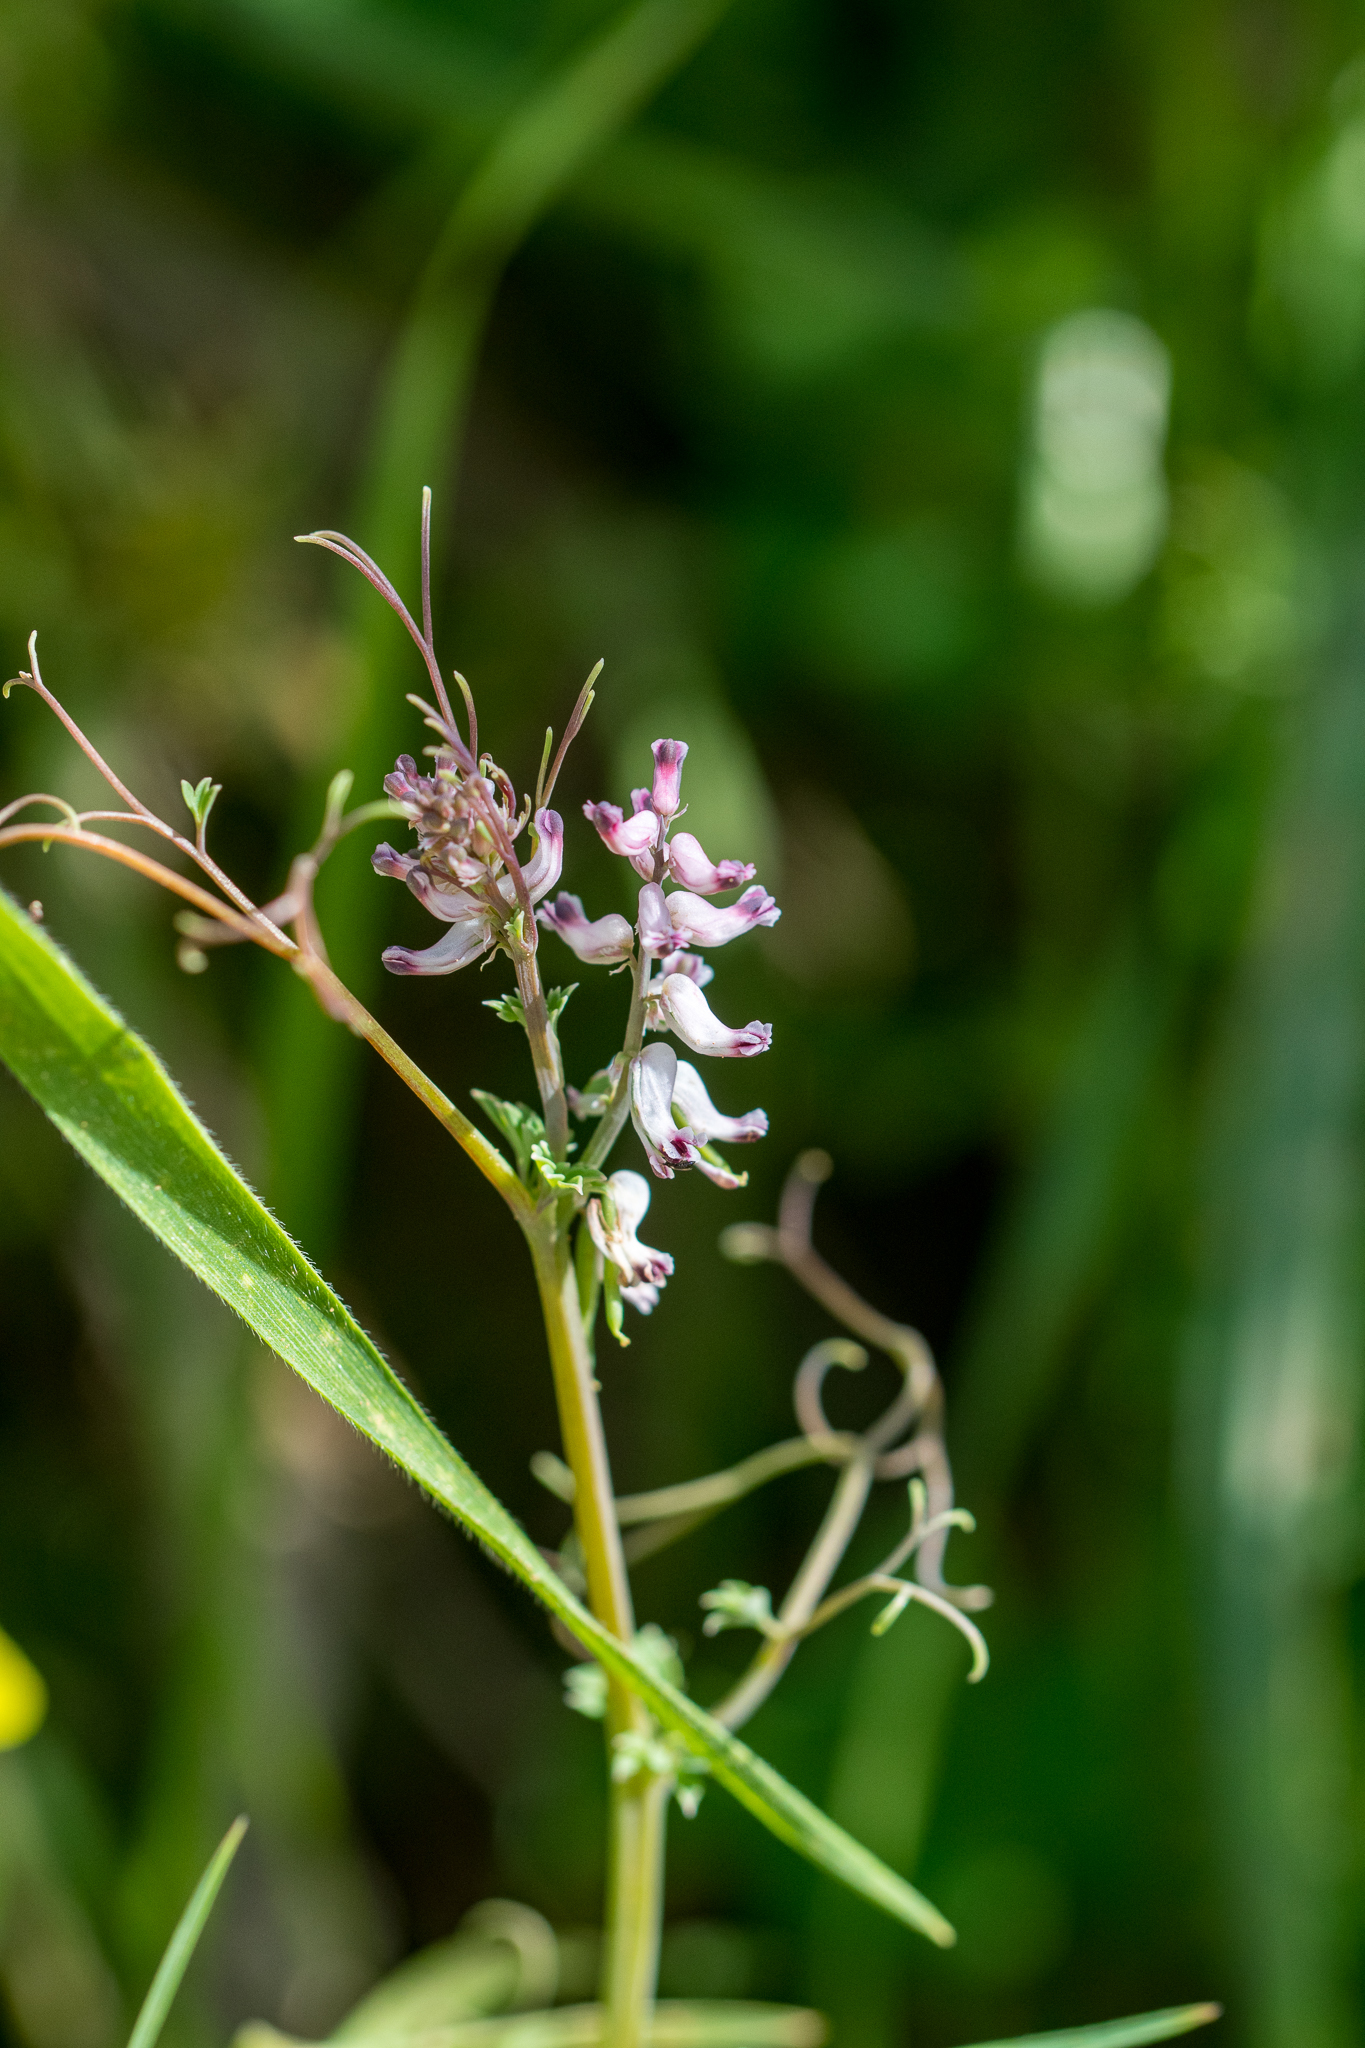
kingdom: Plantae
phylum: Tracheophyta
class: Magnoliopsida
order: Ranunculales
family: Papaveraceae
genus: Cysticapnos
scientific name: Cysticapnos cracca
